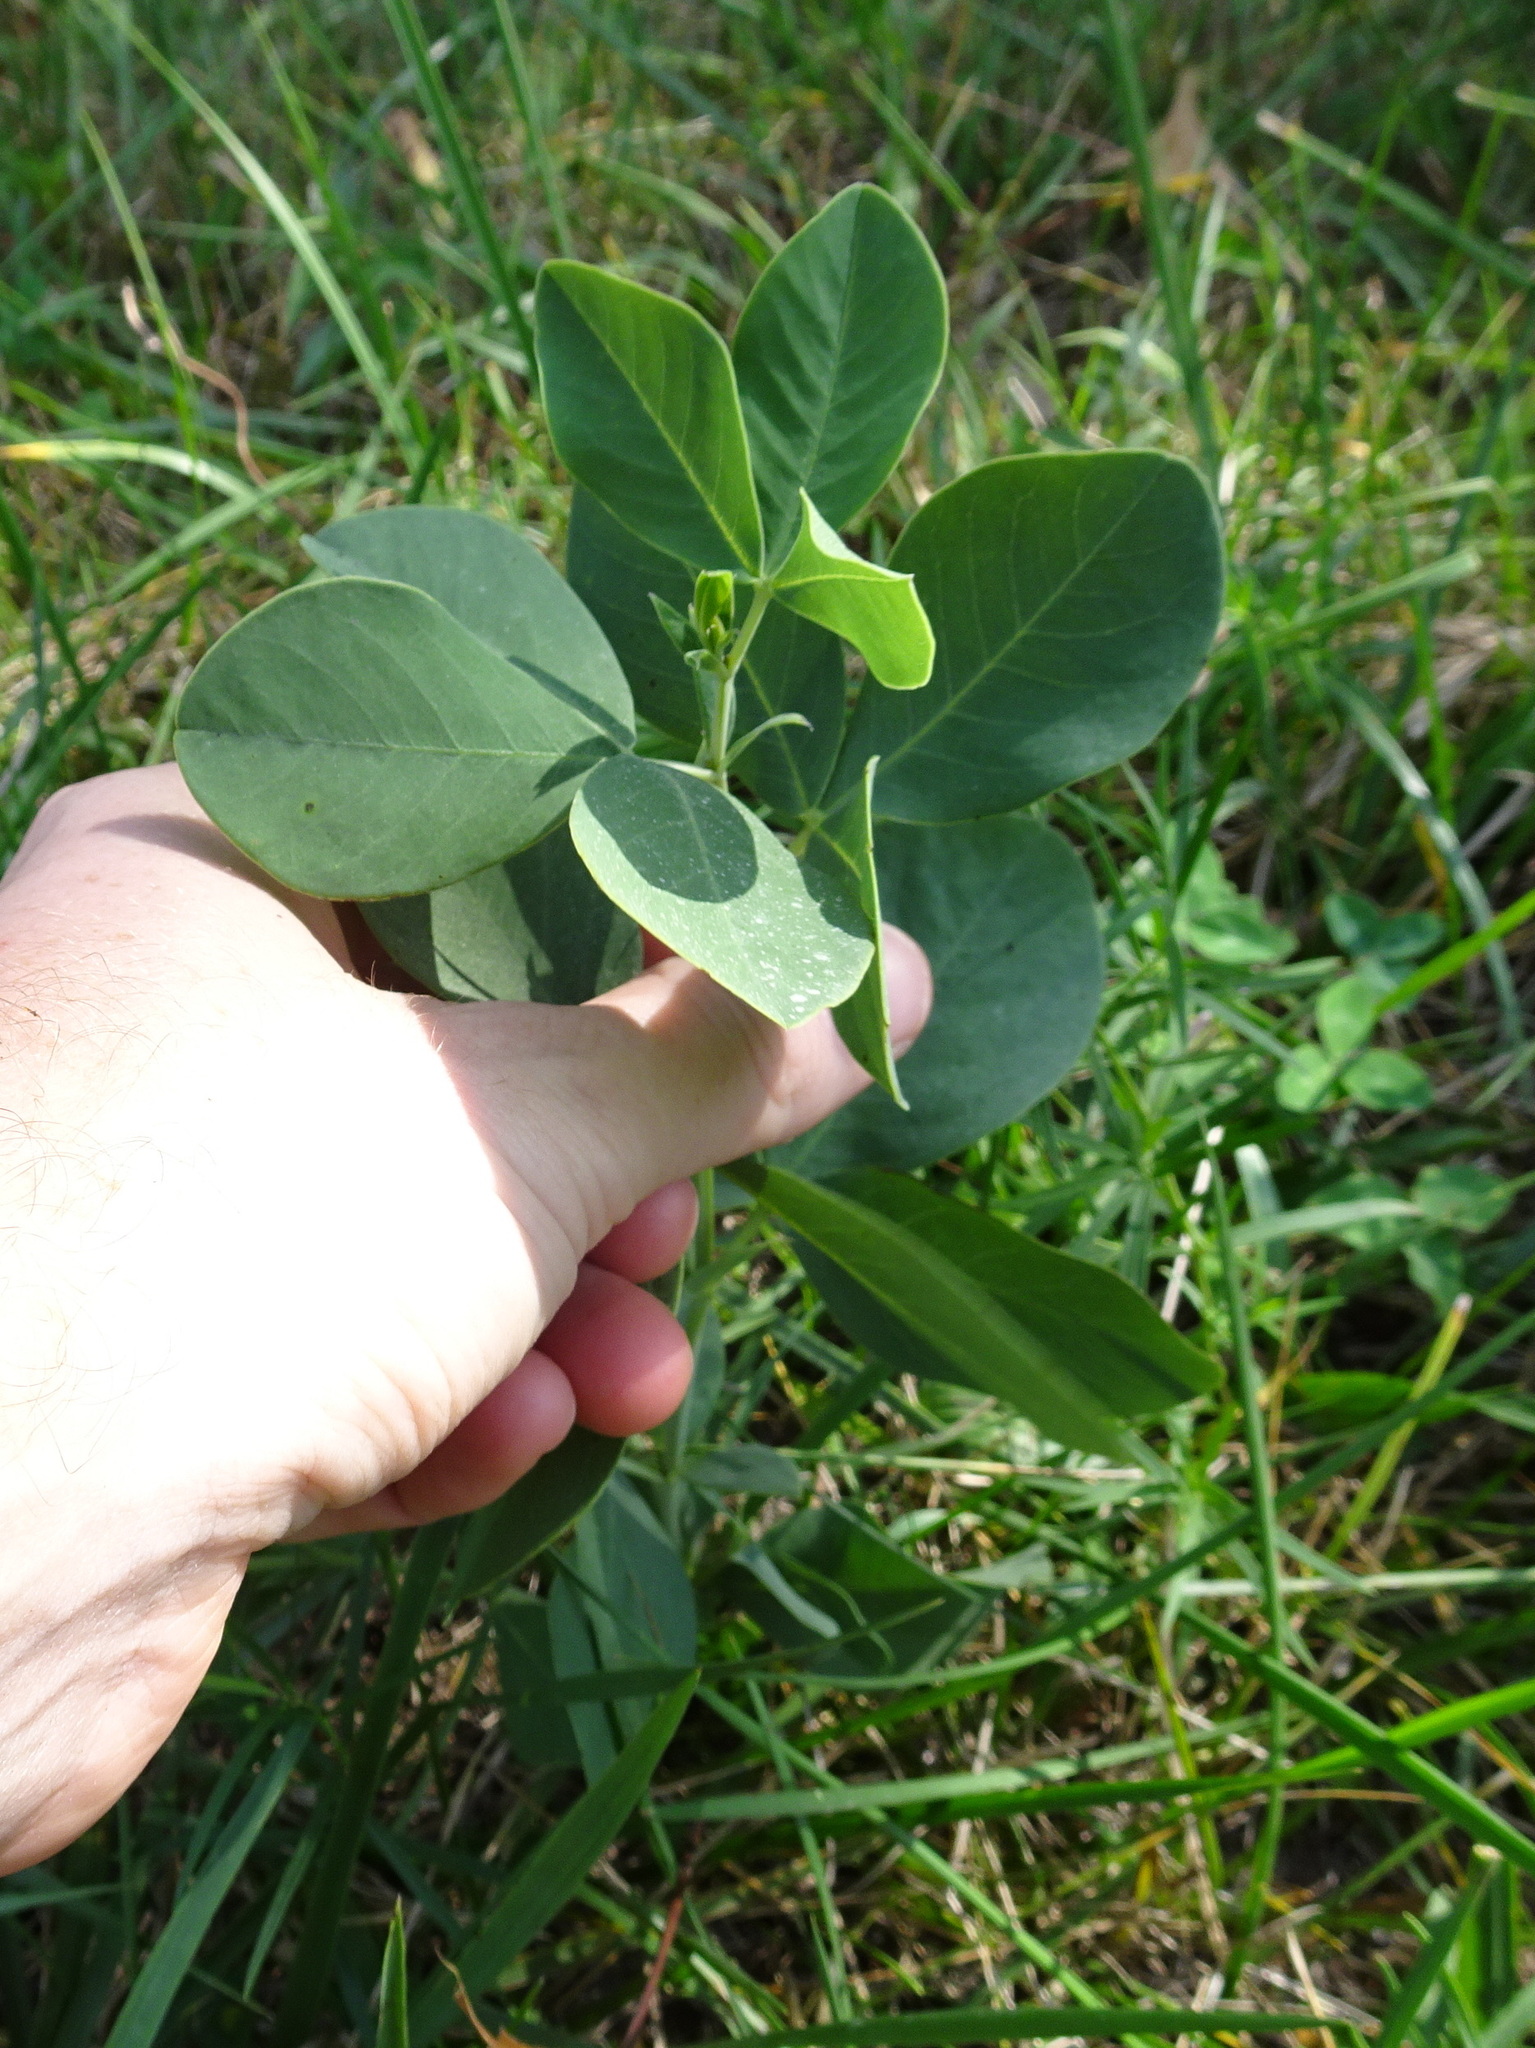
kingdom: Plantae
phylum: Tracheophyta
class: Magnoliopsida
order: Fabales
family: Fabaceae
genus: Baptisia
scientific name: Baptisia alba
